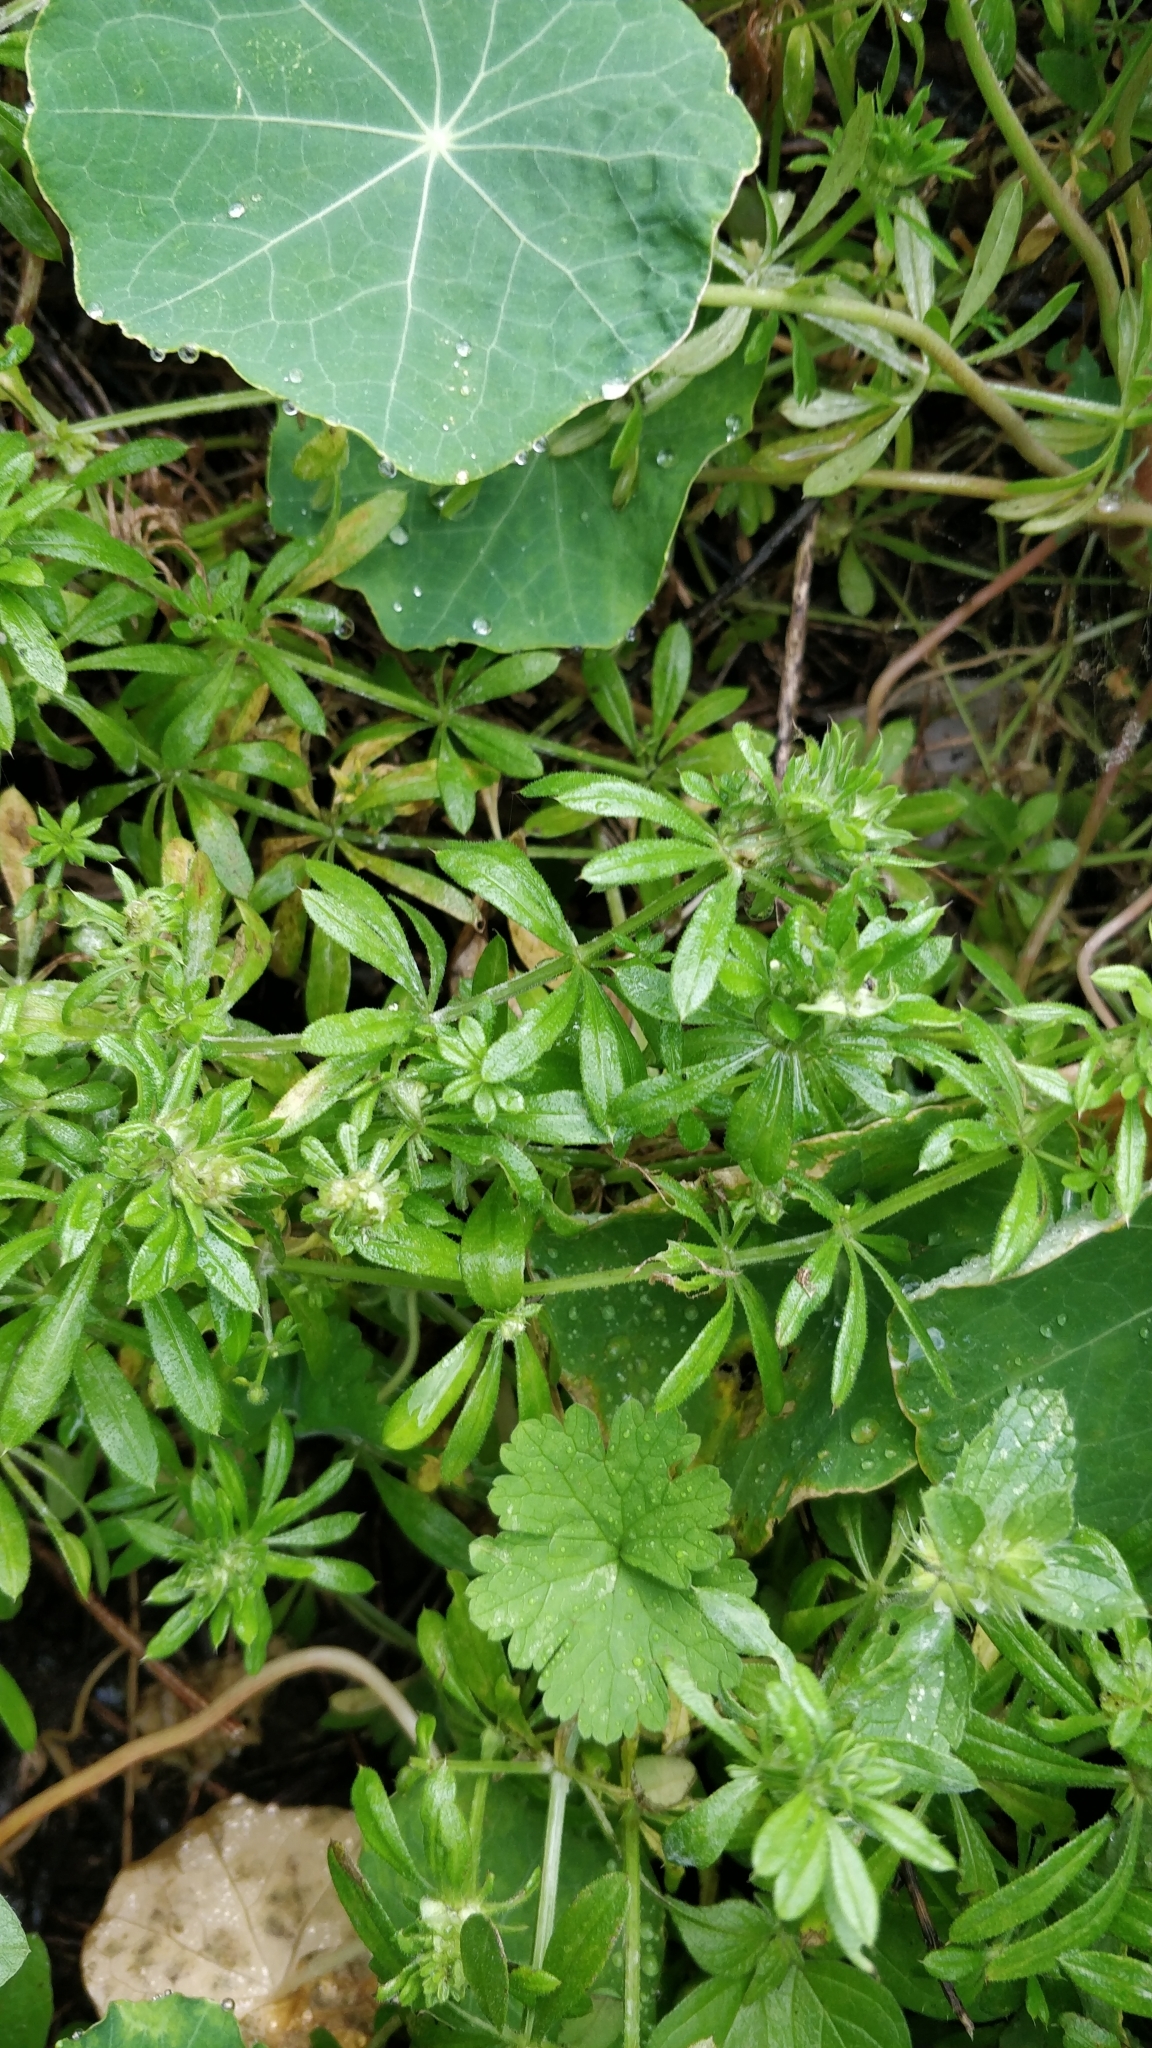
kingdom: Plantae
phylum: Tracheophyta
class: Magnoliopsida
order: Gentianales
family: Rubiaceae
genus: Galium
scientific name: Galium aparine
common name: Cleavers
